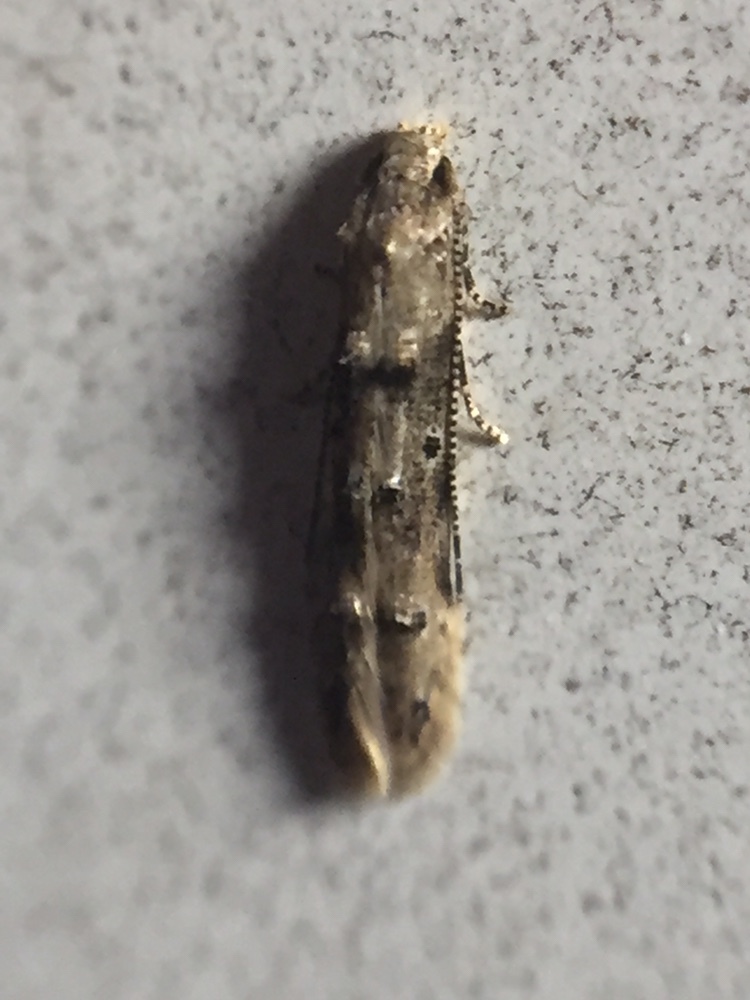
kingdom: Animalia
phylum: Arthropoda
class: Insecta
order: Lepidoptera
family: Elachistidae
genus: Microcolona
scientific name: Microcolona limodes
